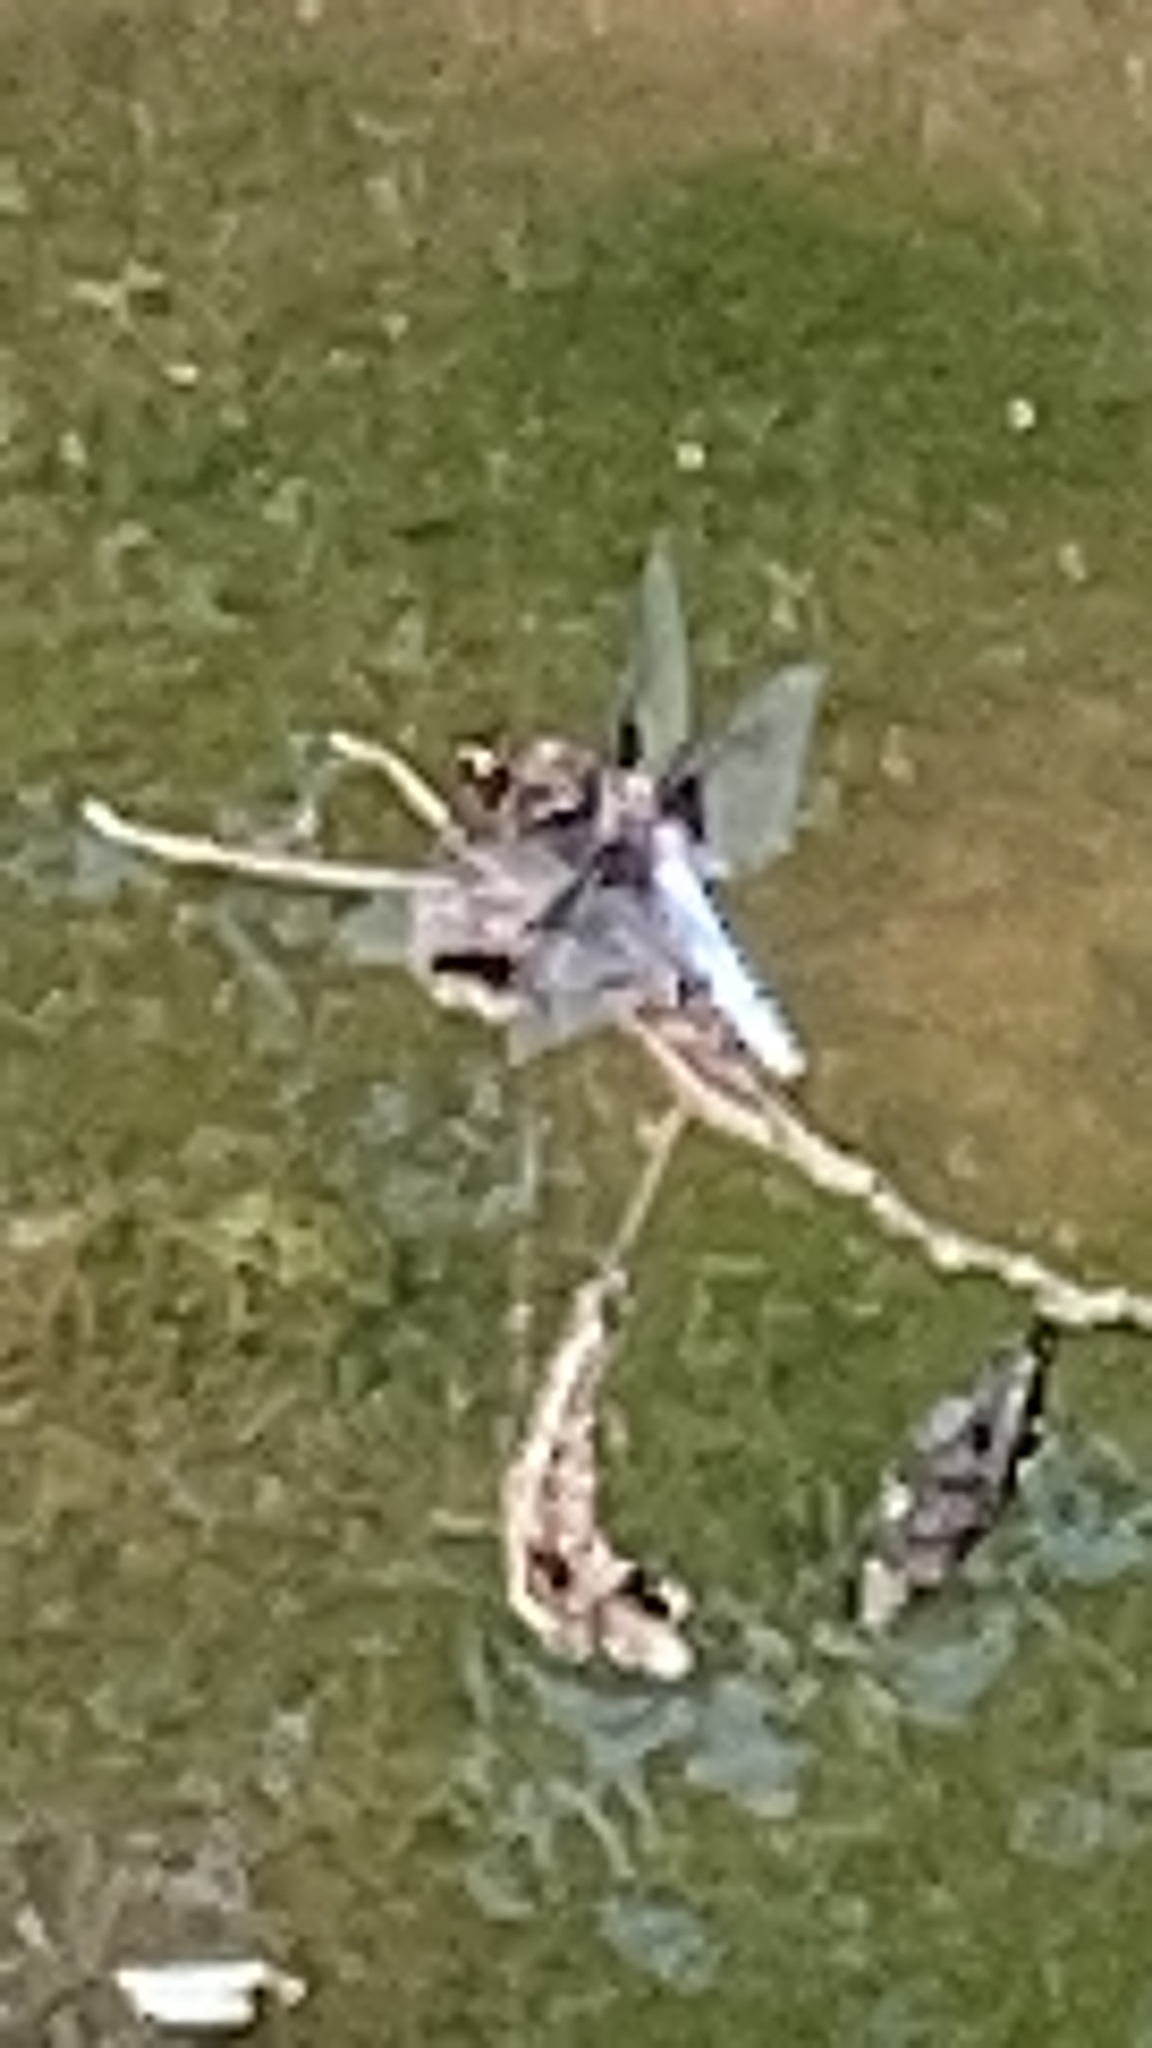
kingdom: Animalia
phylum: Arthropoda
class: Insecta
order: Odonata
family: Libellulidae
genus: Libellula
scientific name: Libellula depressa
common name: Broad-bodied chaser
